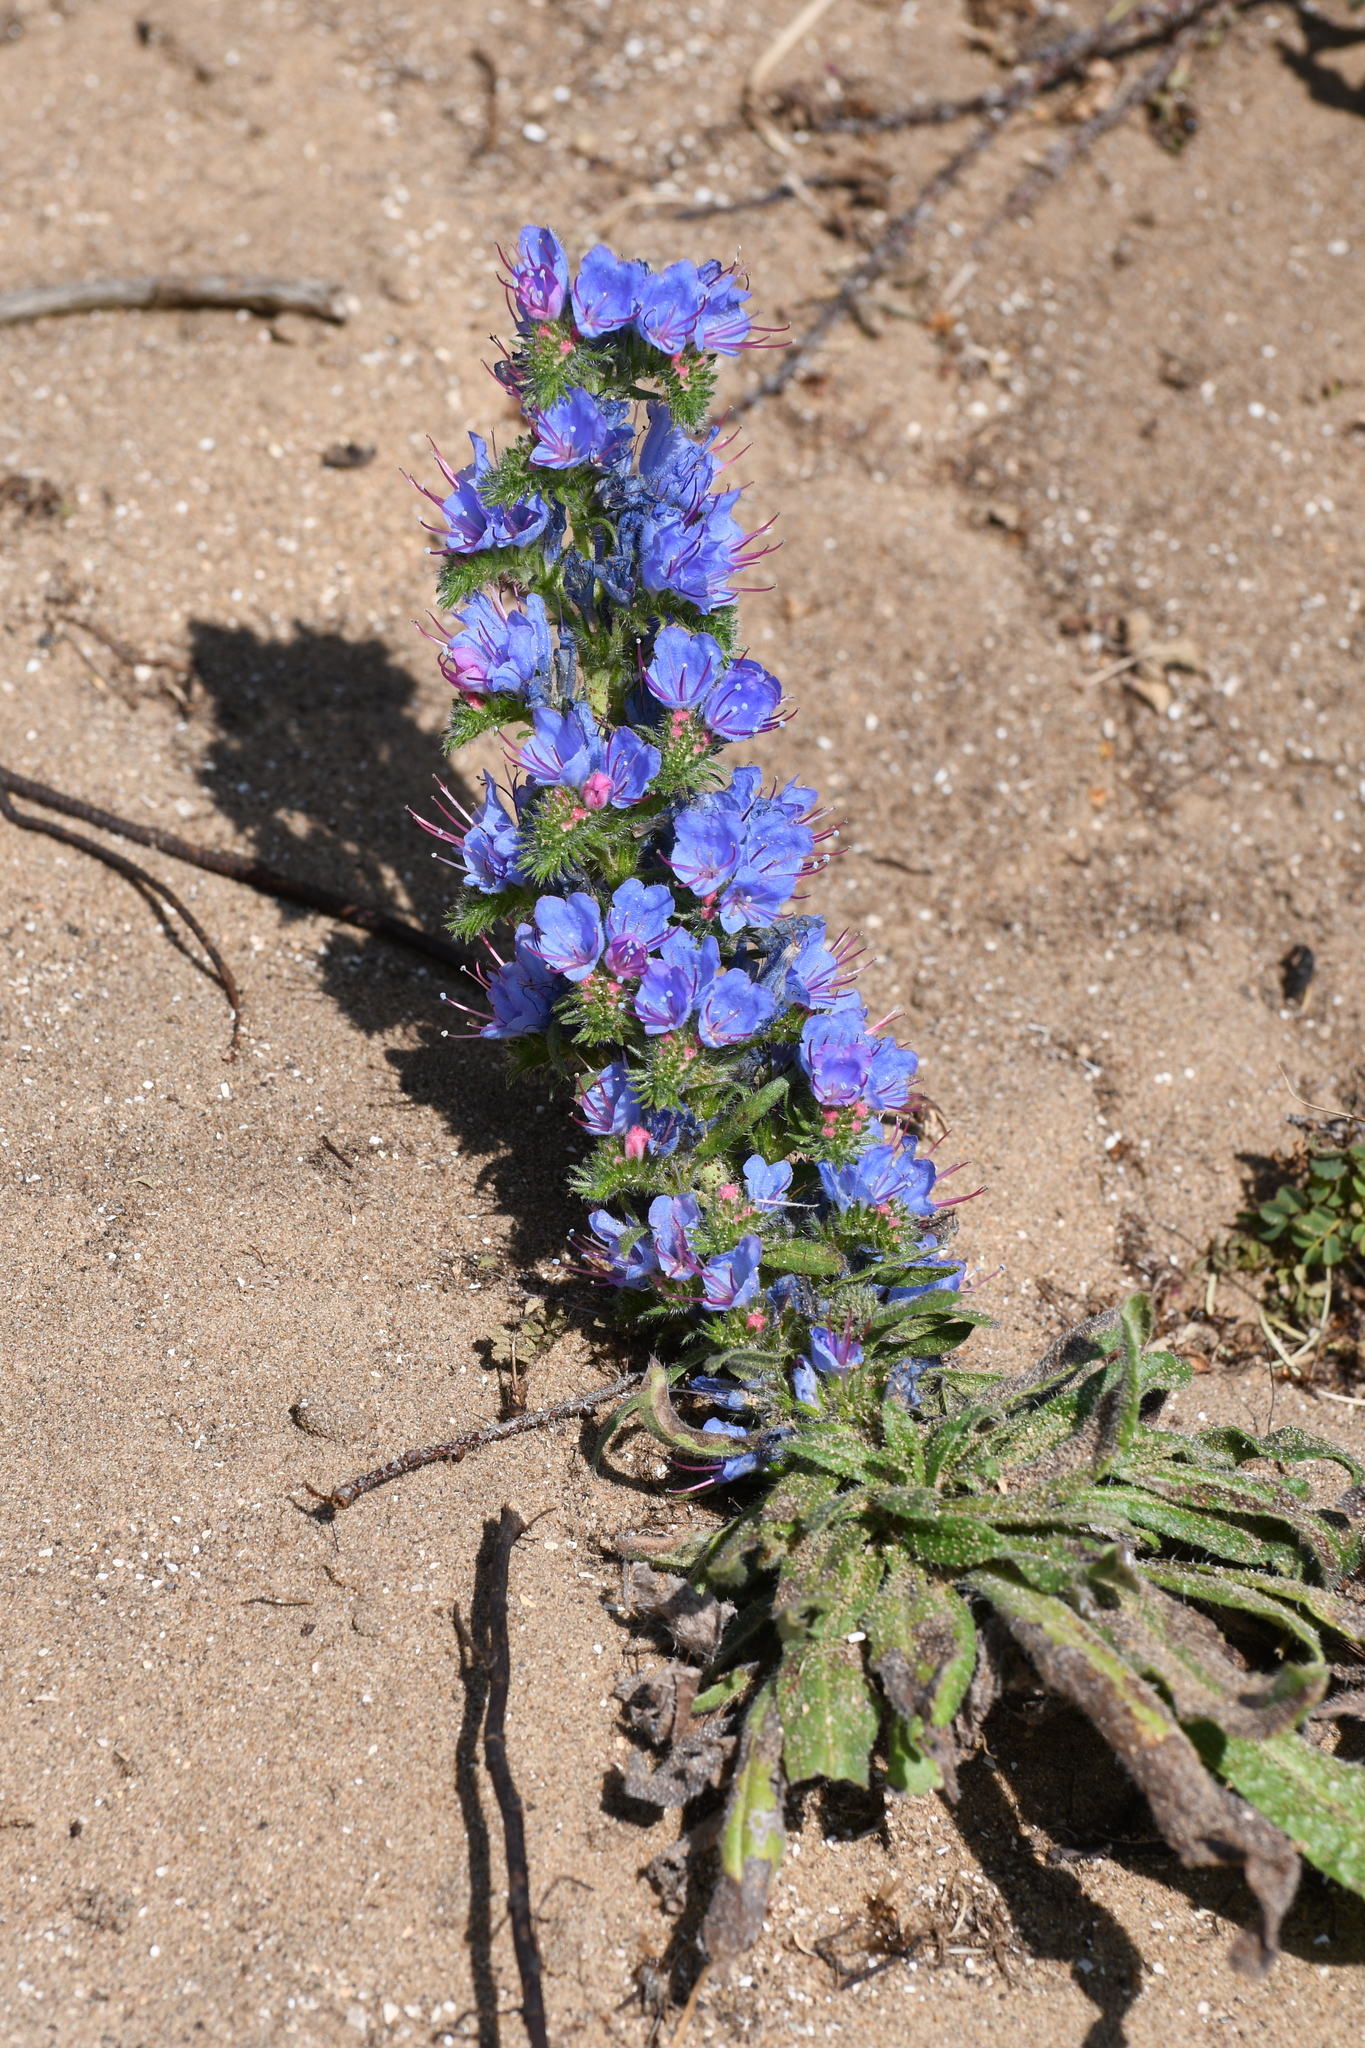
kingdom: Plantae
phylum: Tracheophyta
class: Magnoliopsida
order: Boraginales
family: Boraginaceae
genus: Echium
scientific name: Echium vulgare
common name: Common viper's bugloss
